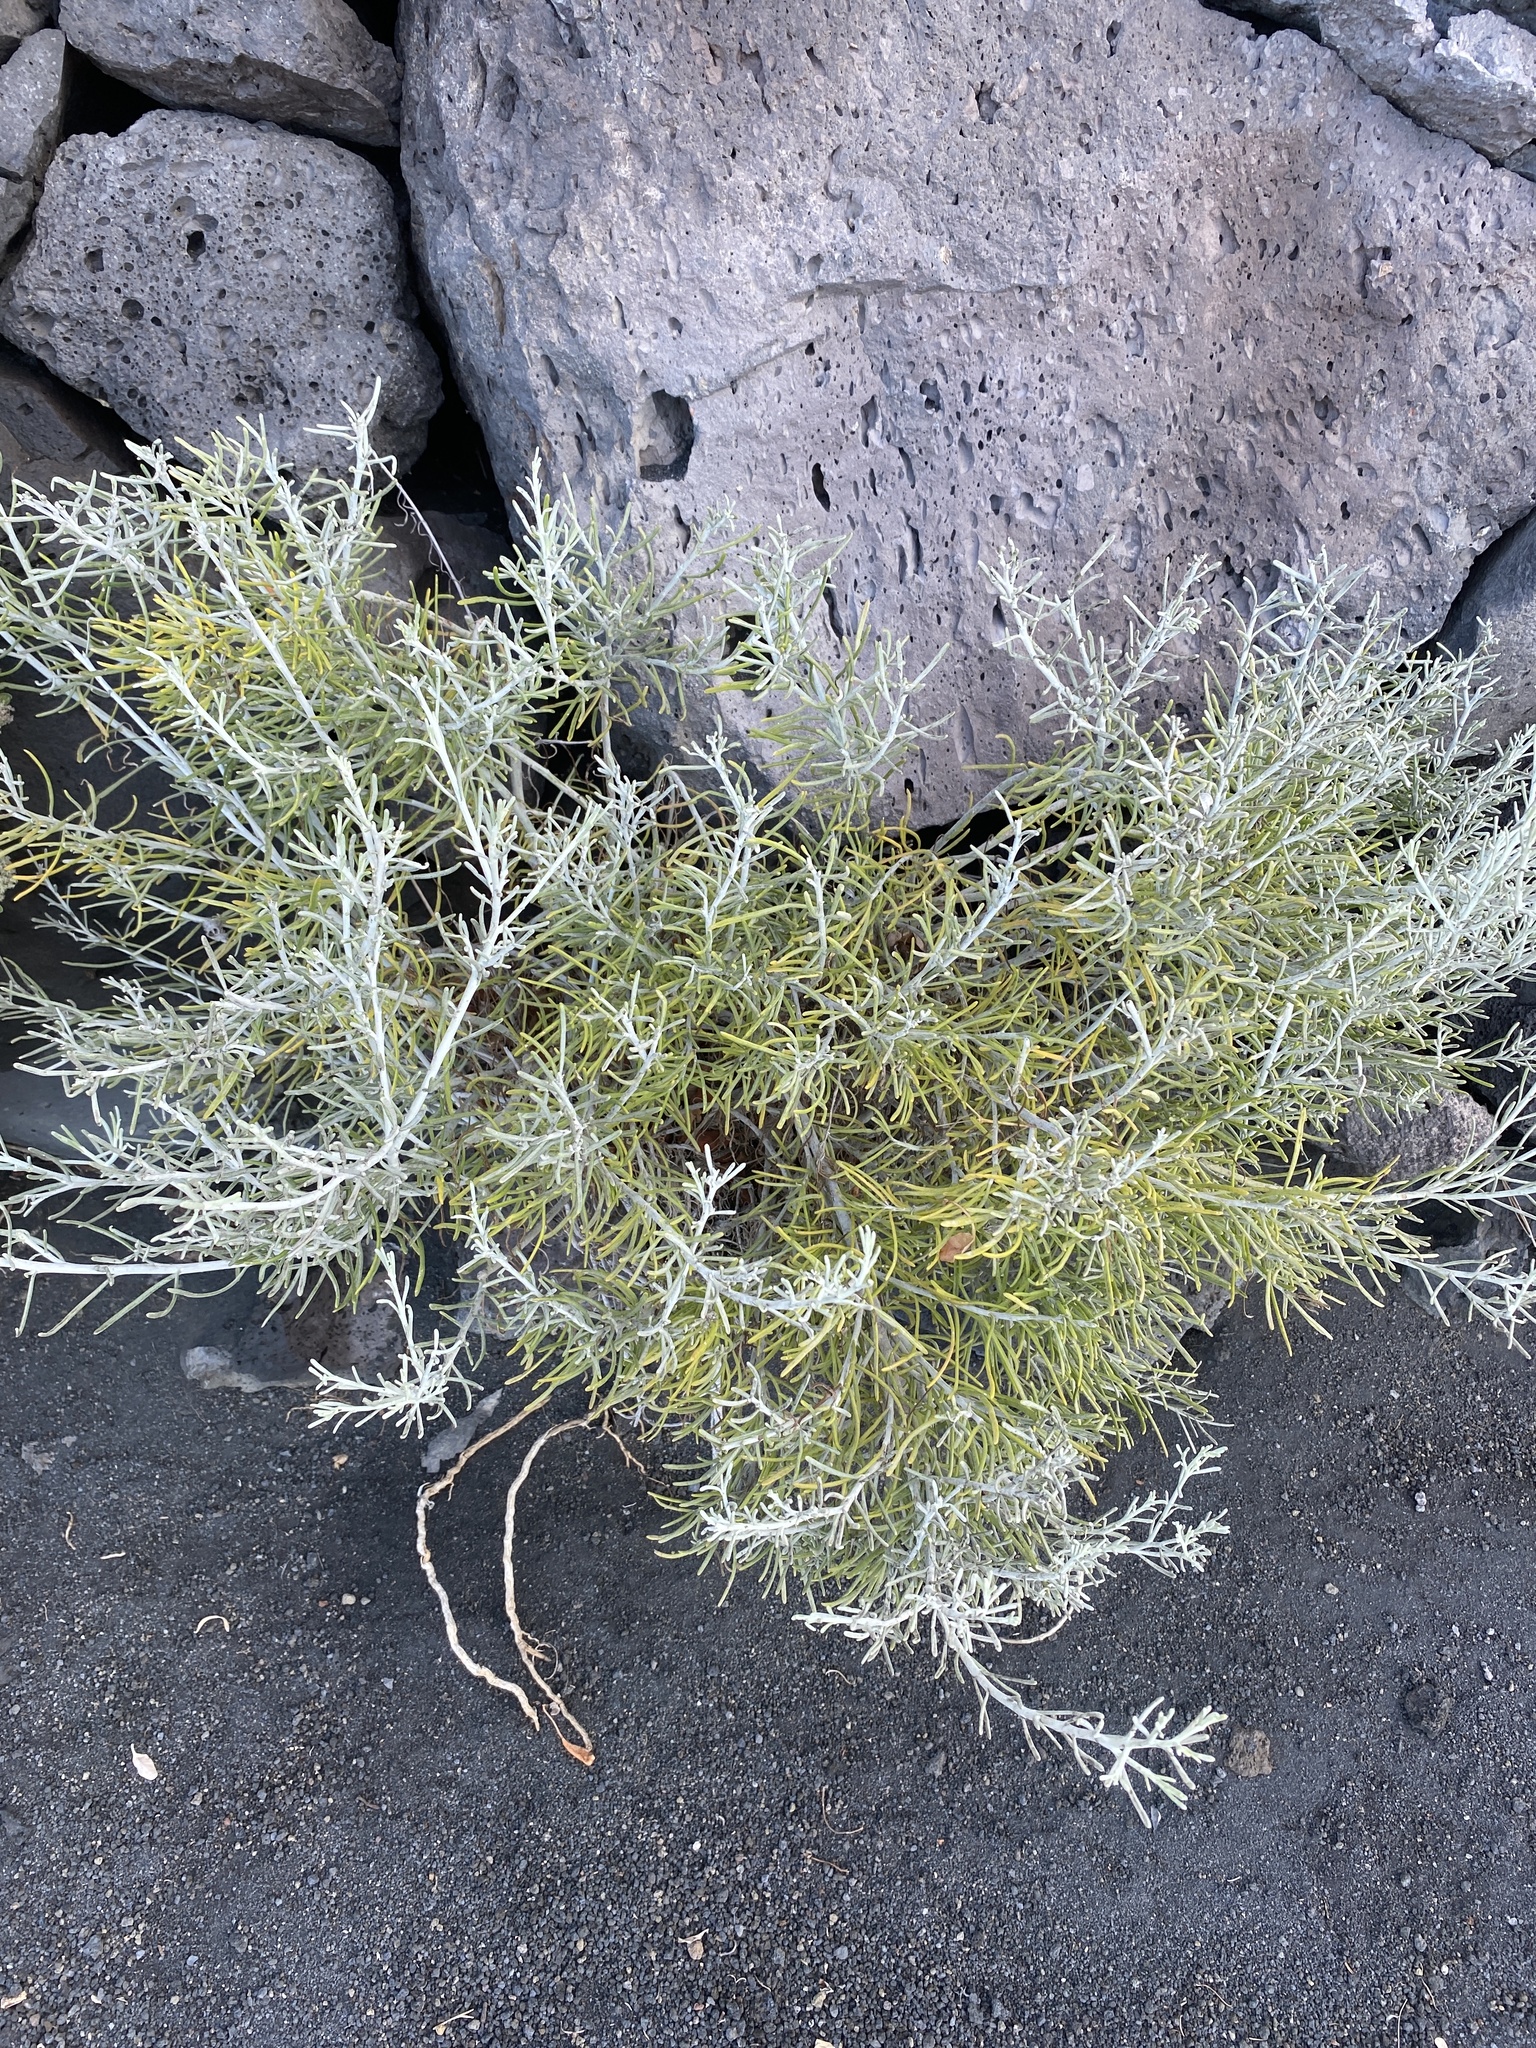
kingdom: Plantae
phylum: Tracheophyta
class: Magnoliopsida
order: Asterales
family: Asteraceae
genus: Schizogyne
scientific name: Schizogyne sericea
